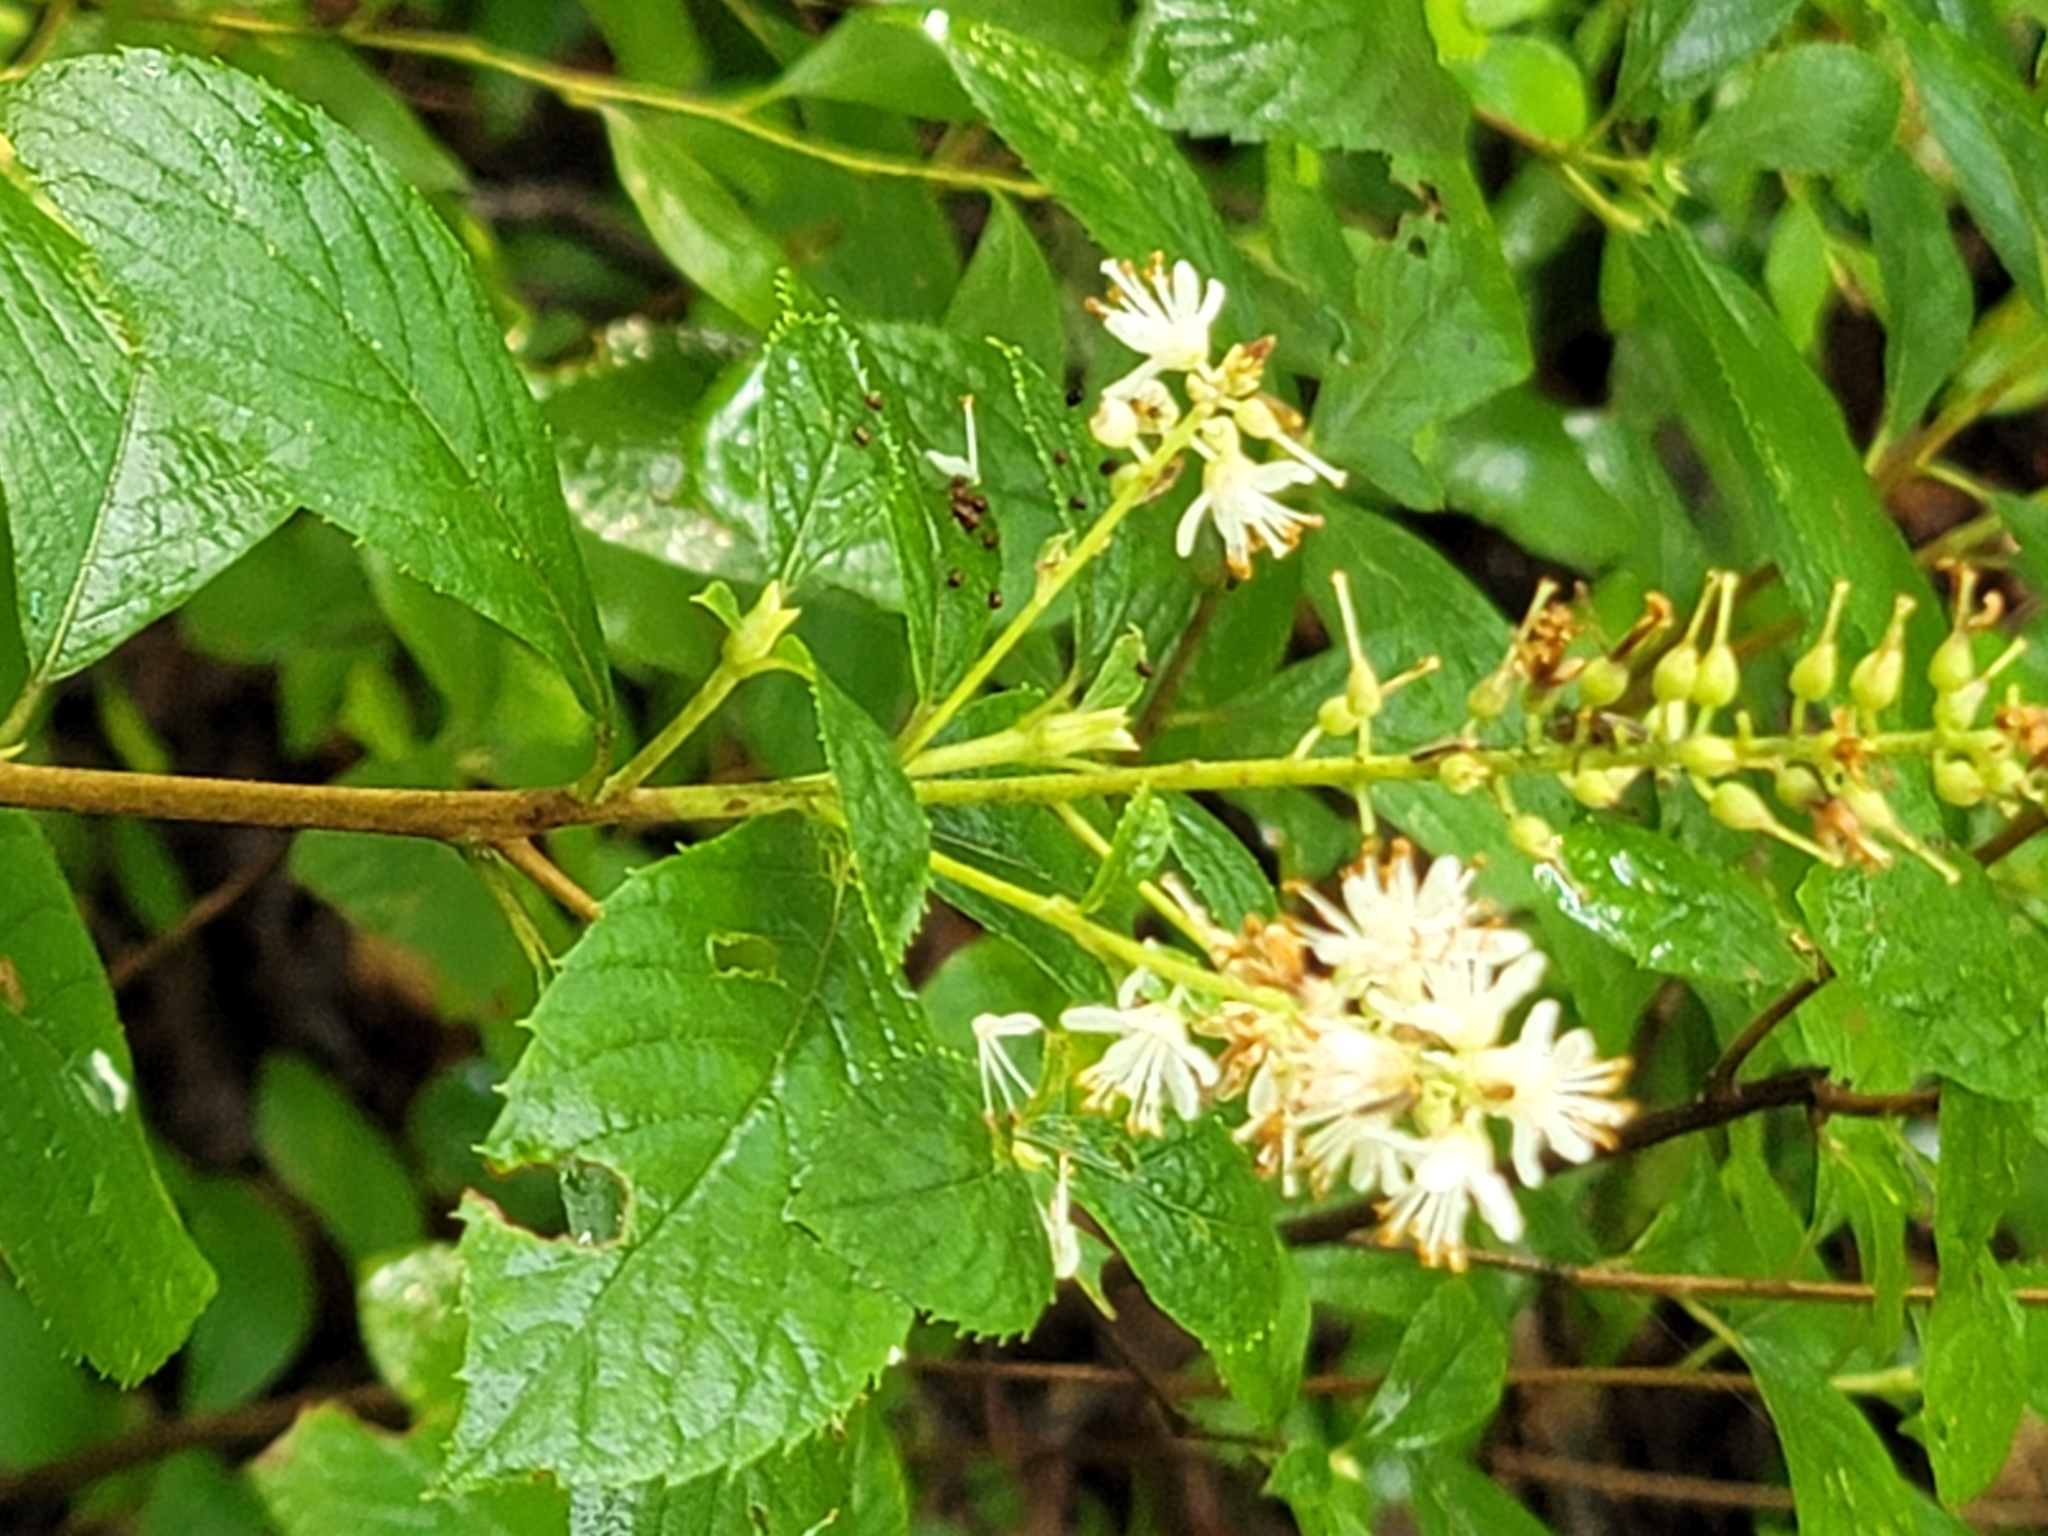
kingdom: Plantae
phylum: Tracheophyta
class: Magnoliopsida
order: Ericales
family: Clethraceae
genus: Clethra
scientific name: Clethra alnifolia
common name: Sweet pepperbush
